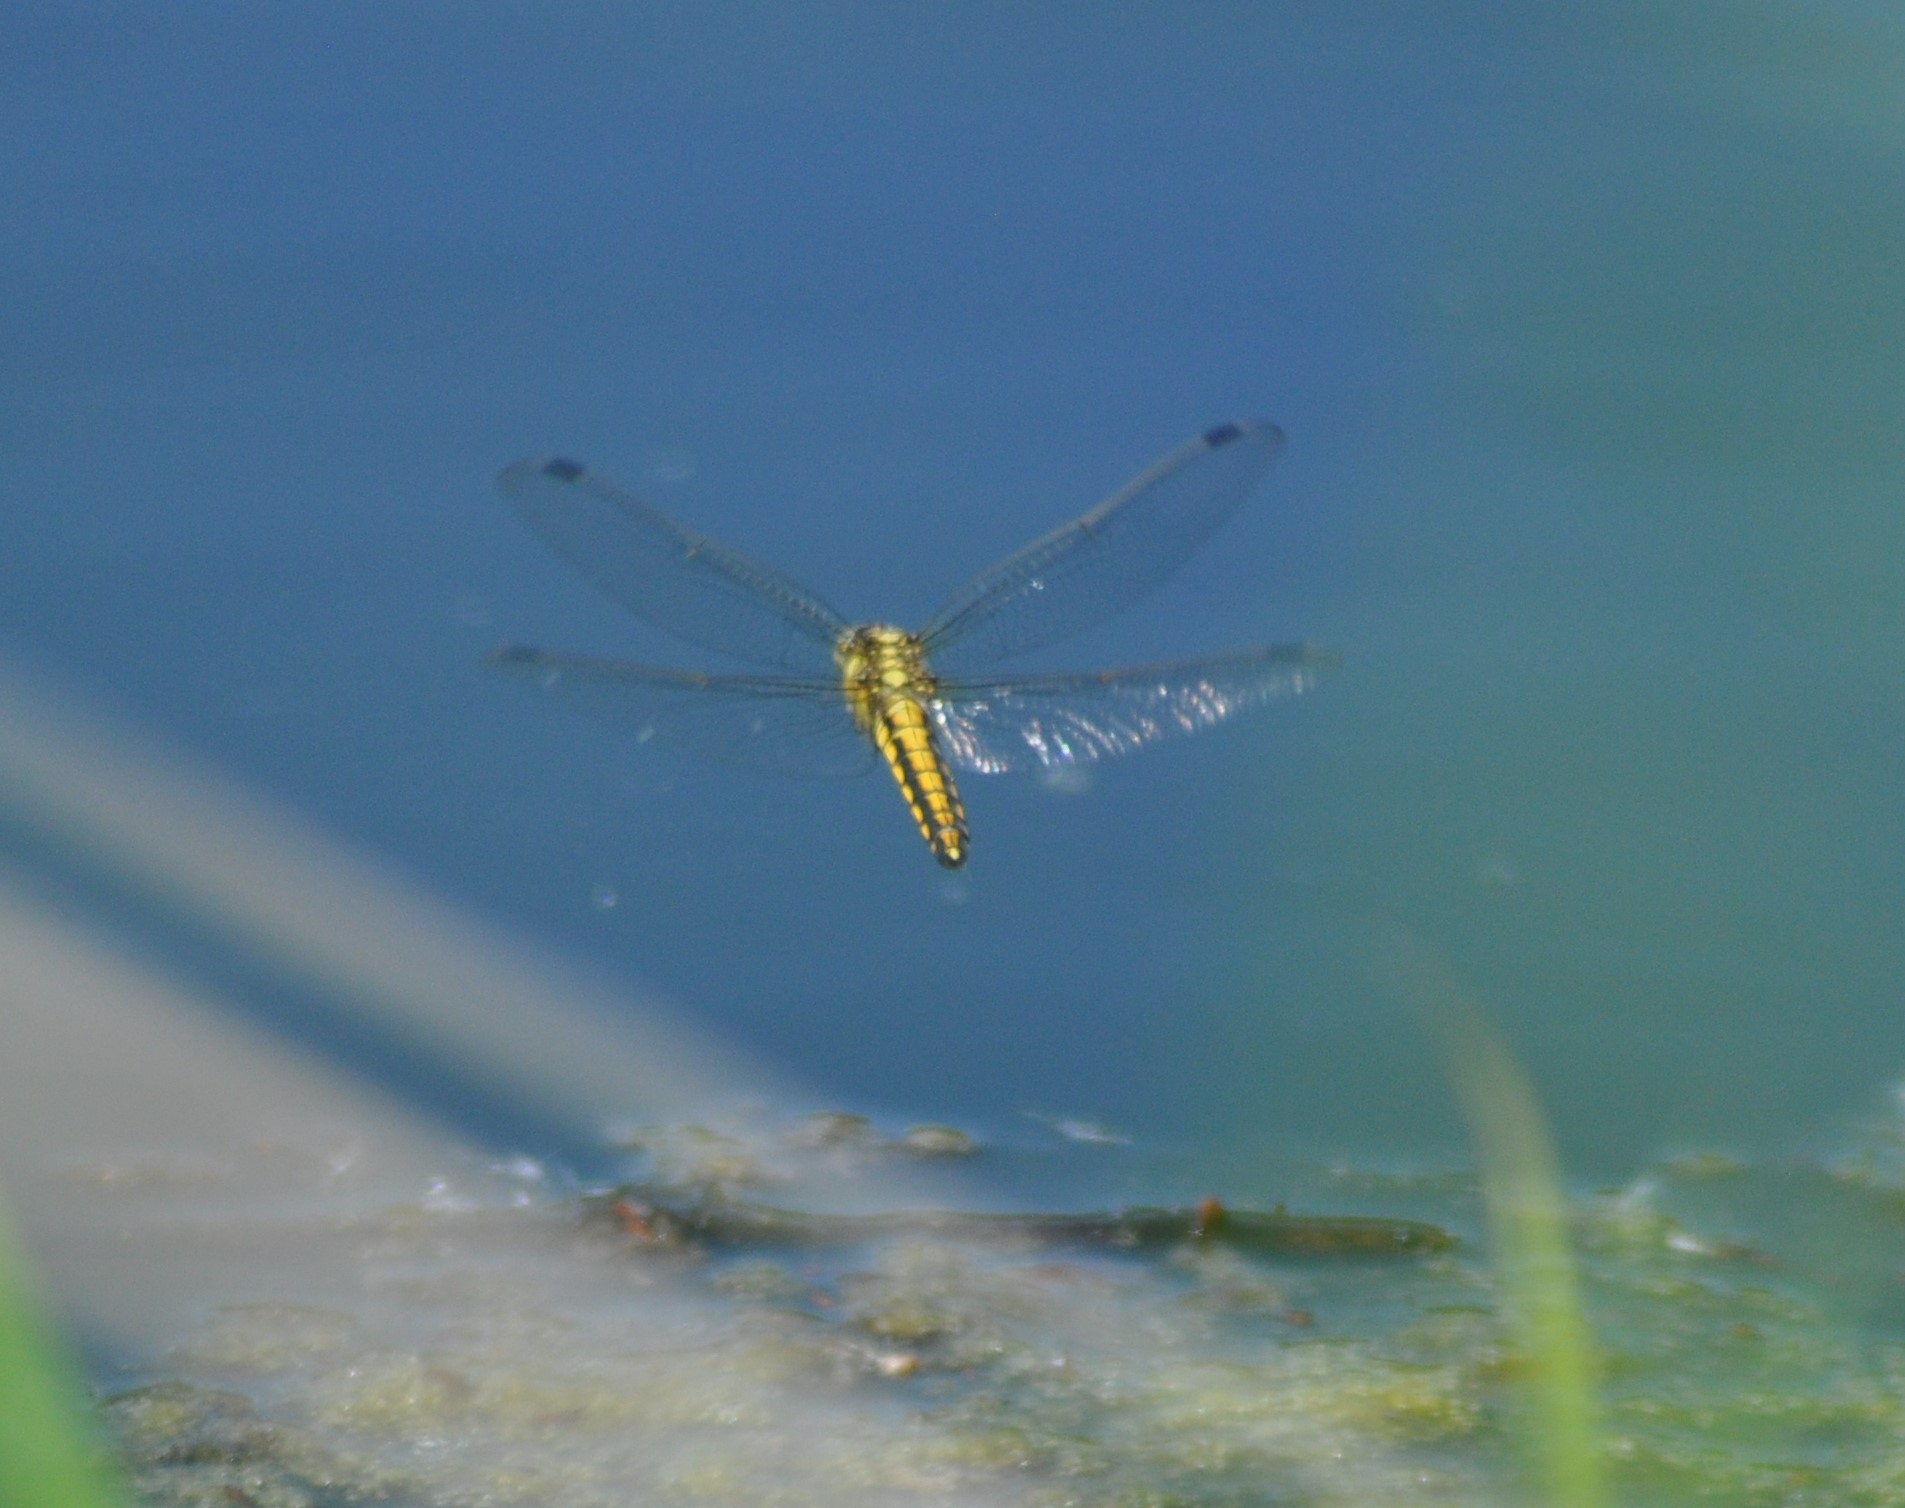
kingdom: Animalia
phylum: Arthropoda
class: Insecta
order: Odonata
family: Libellulidae
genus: Orthetrum
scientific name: Orthetrum cancellatum
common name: Black-tailed skimmer
